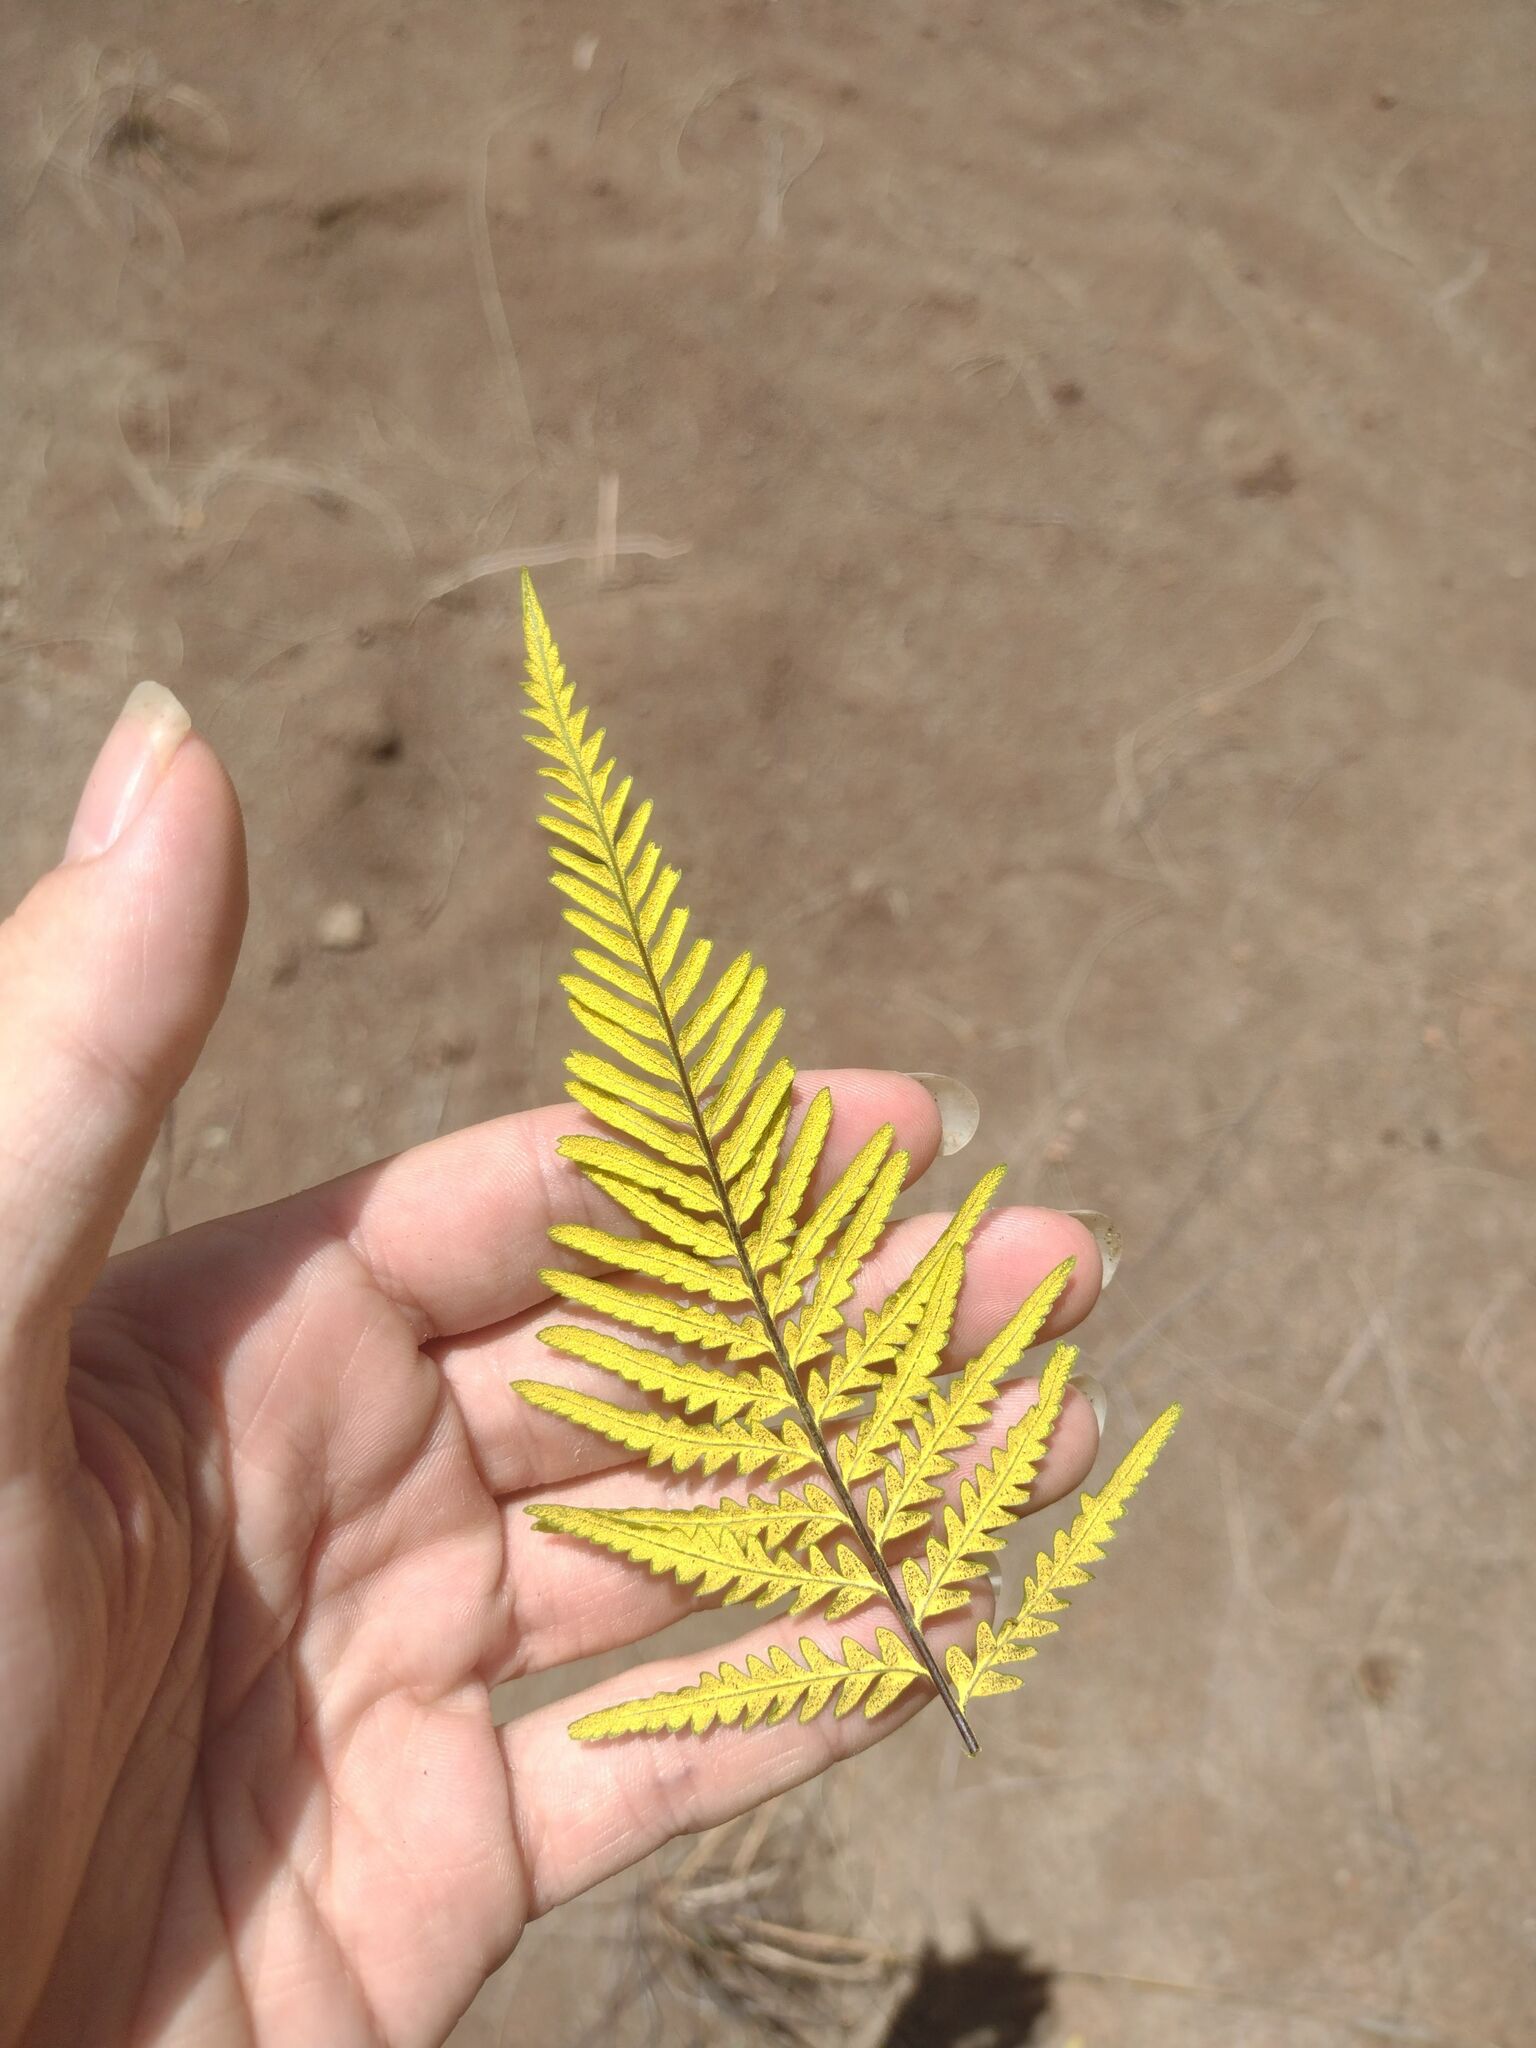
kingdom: Plantae
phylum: Tracheophyta
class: Polypodiopsida
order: Polypodiales
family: Pteridaceae
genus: Pityrogramma
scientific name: Pityrogramma austroamericana
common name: Leatherleaf goldback fern
